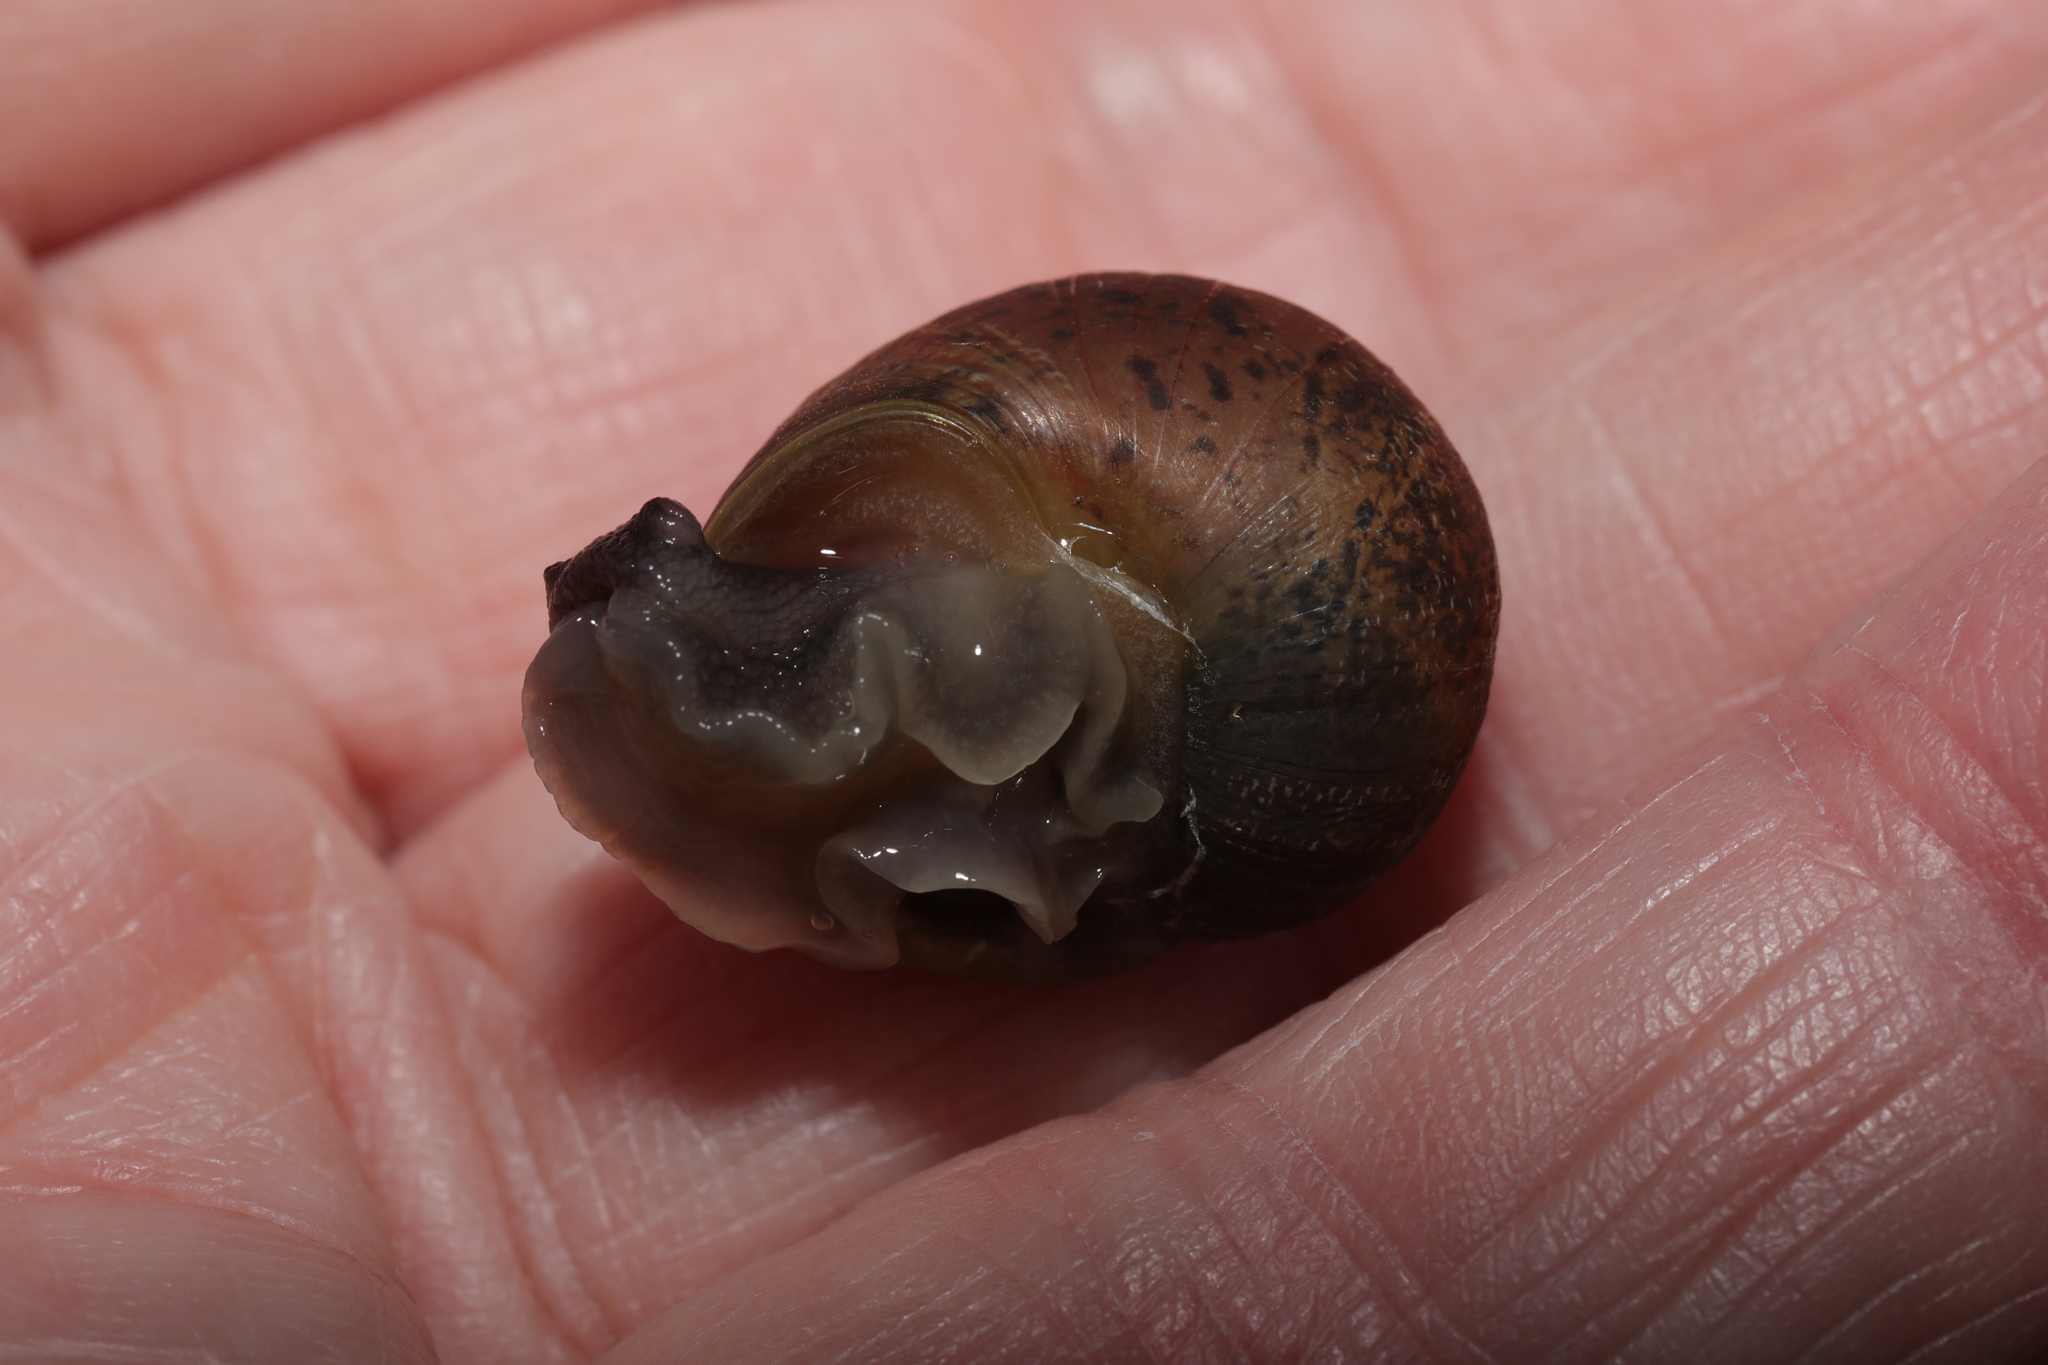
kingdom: Animalia
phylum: Mollusca
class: Gastropoda
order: Stylommatophora
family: Helicidae
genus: Cornu
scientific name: Cornu aspersum
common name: Brown garden snail
